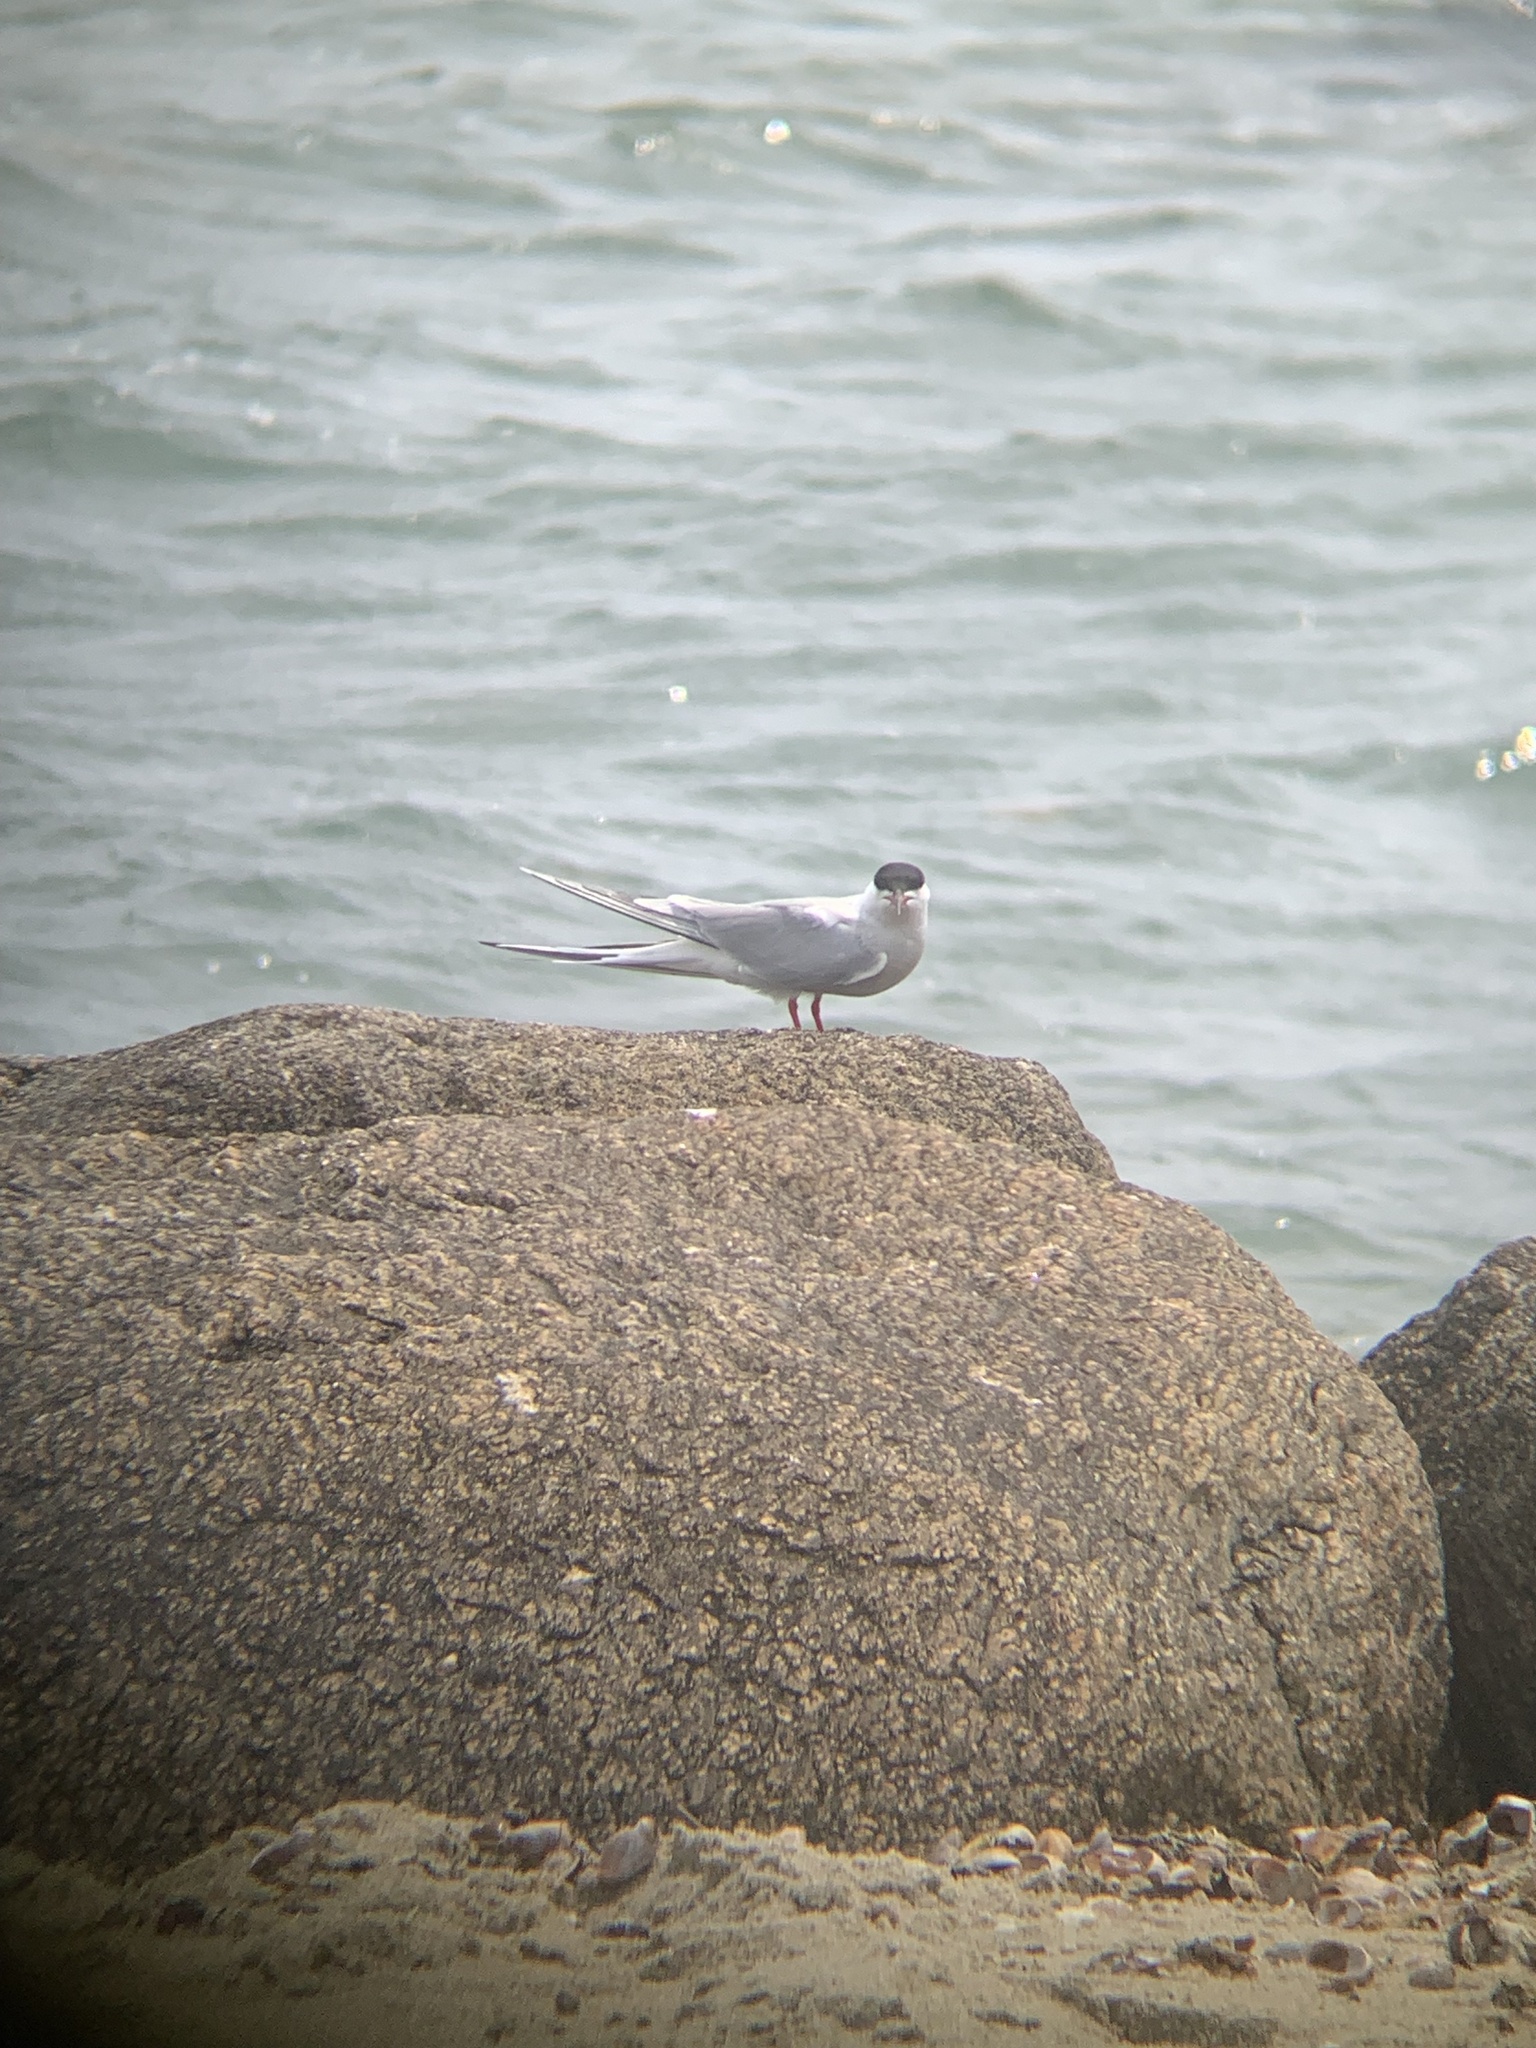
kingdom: Animalia
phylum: Chordata
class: Aves
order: Charadriiformes
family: Laridae
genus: Sterna
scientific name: Sterna hirundo
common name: Common tern
